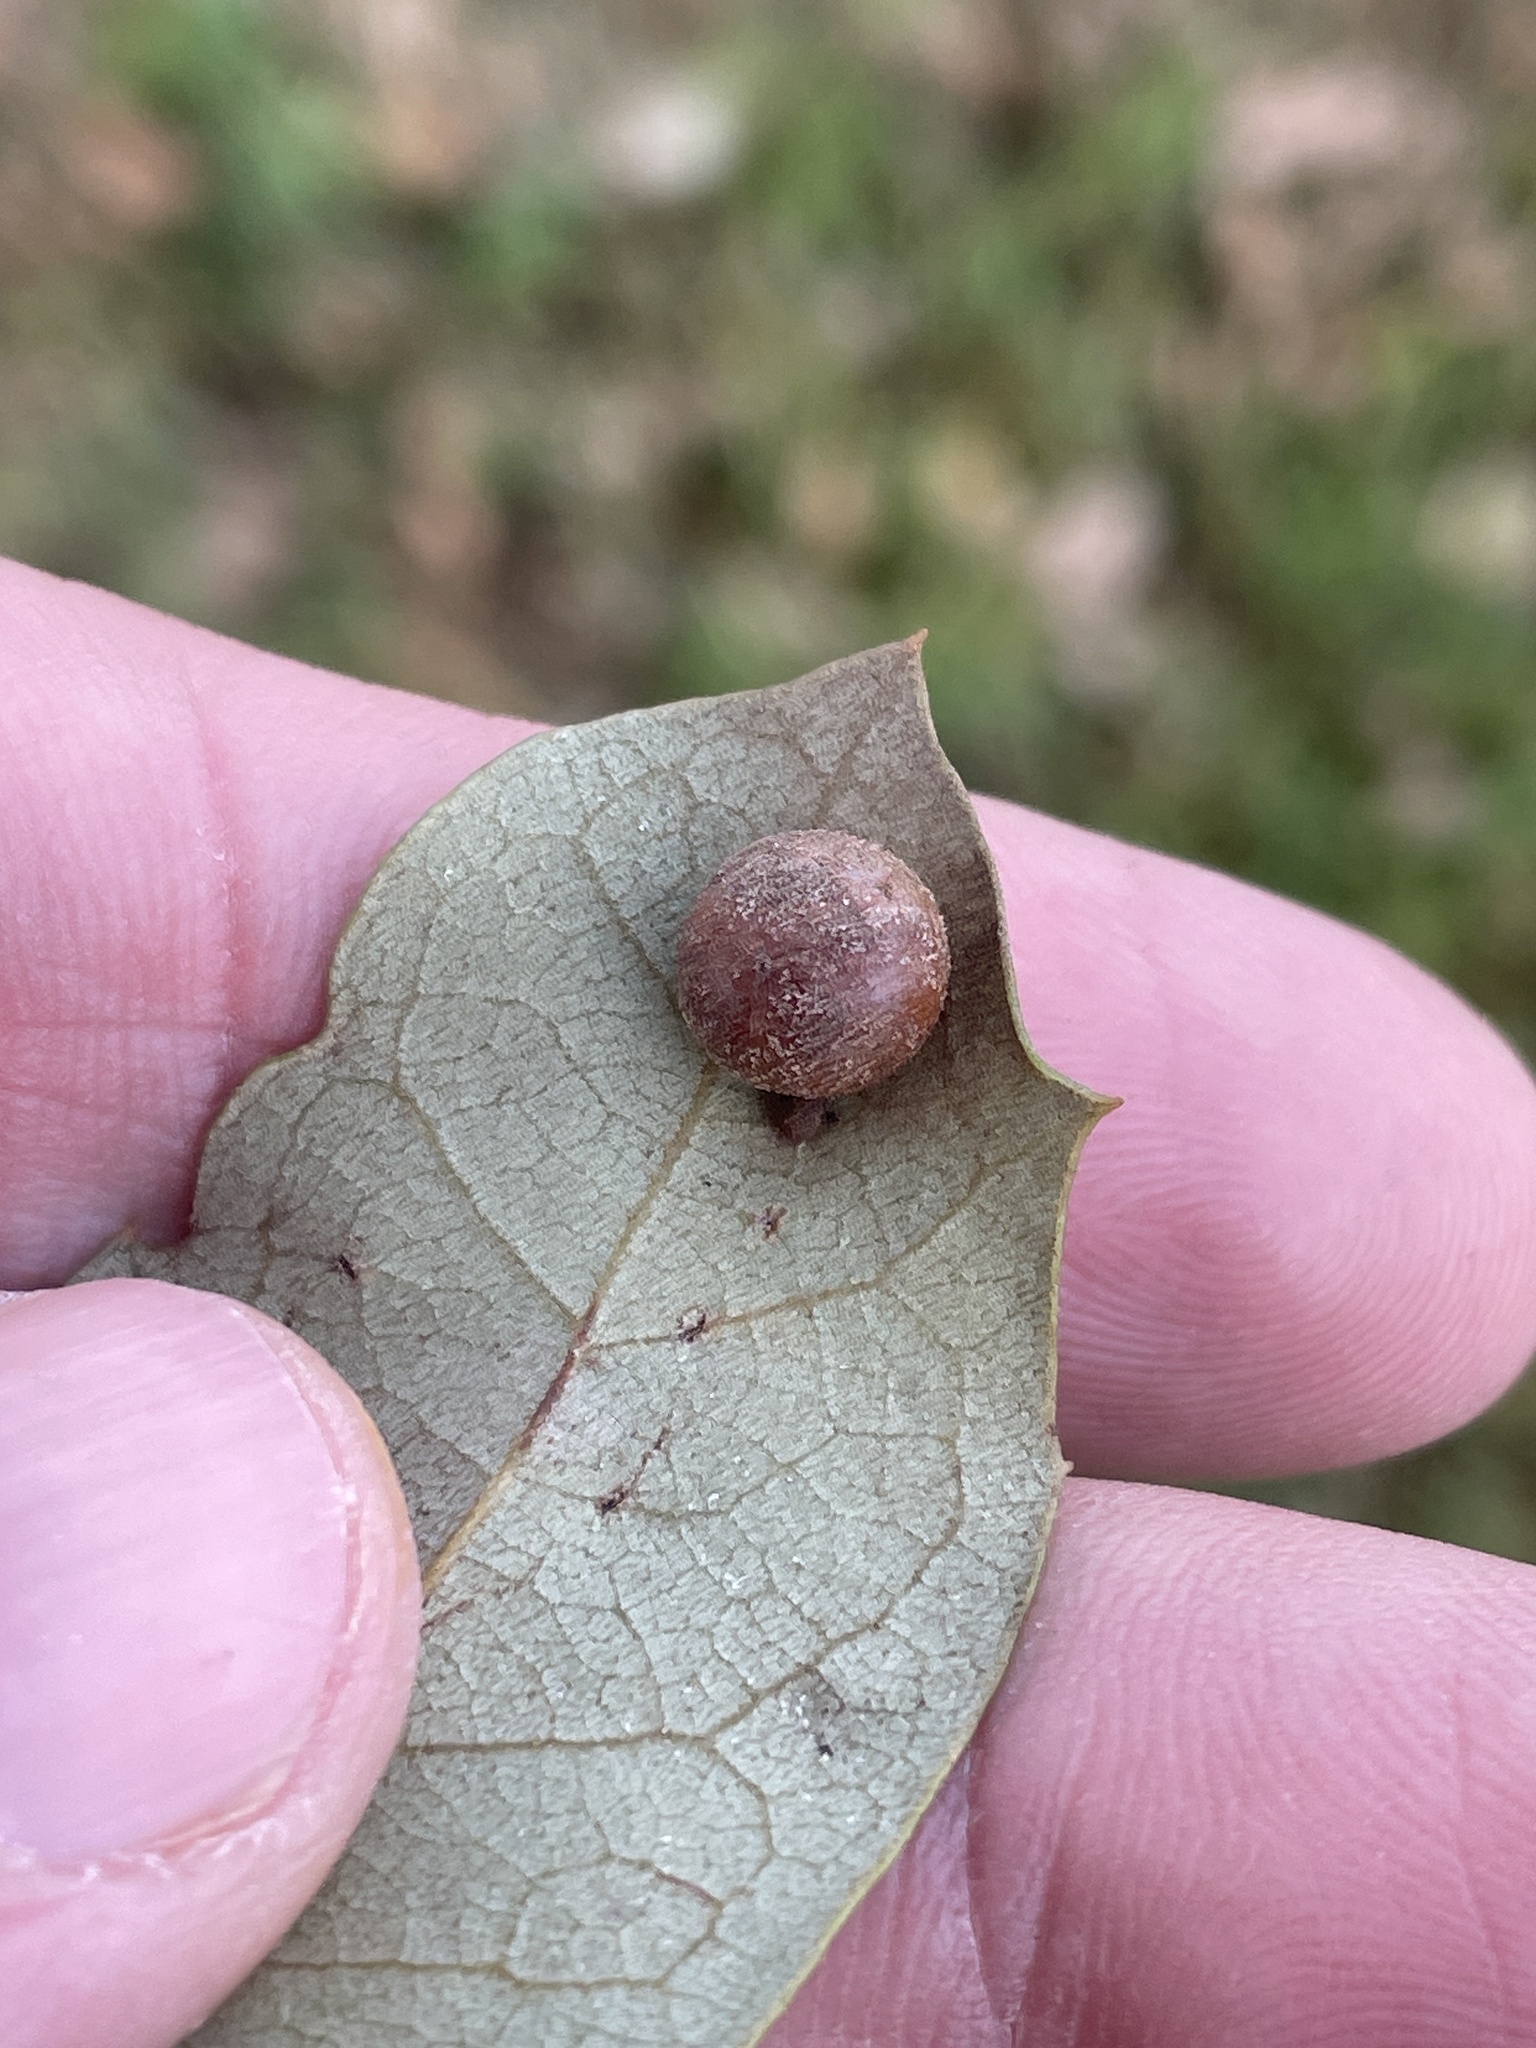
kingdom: Animalia
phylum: Arthropoda
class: Insecta
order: Hymenoptera
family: Cynipidae
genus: Belonocnema
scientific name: Belonocnema kinseyi
